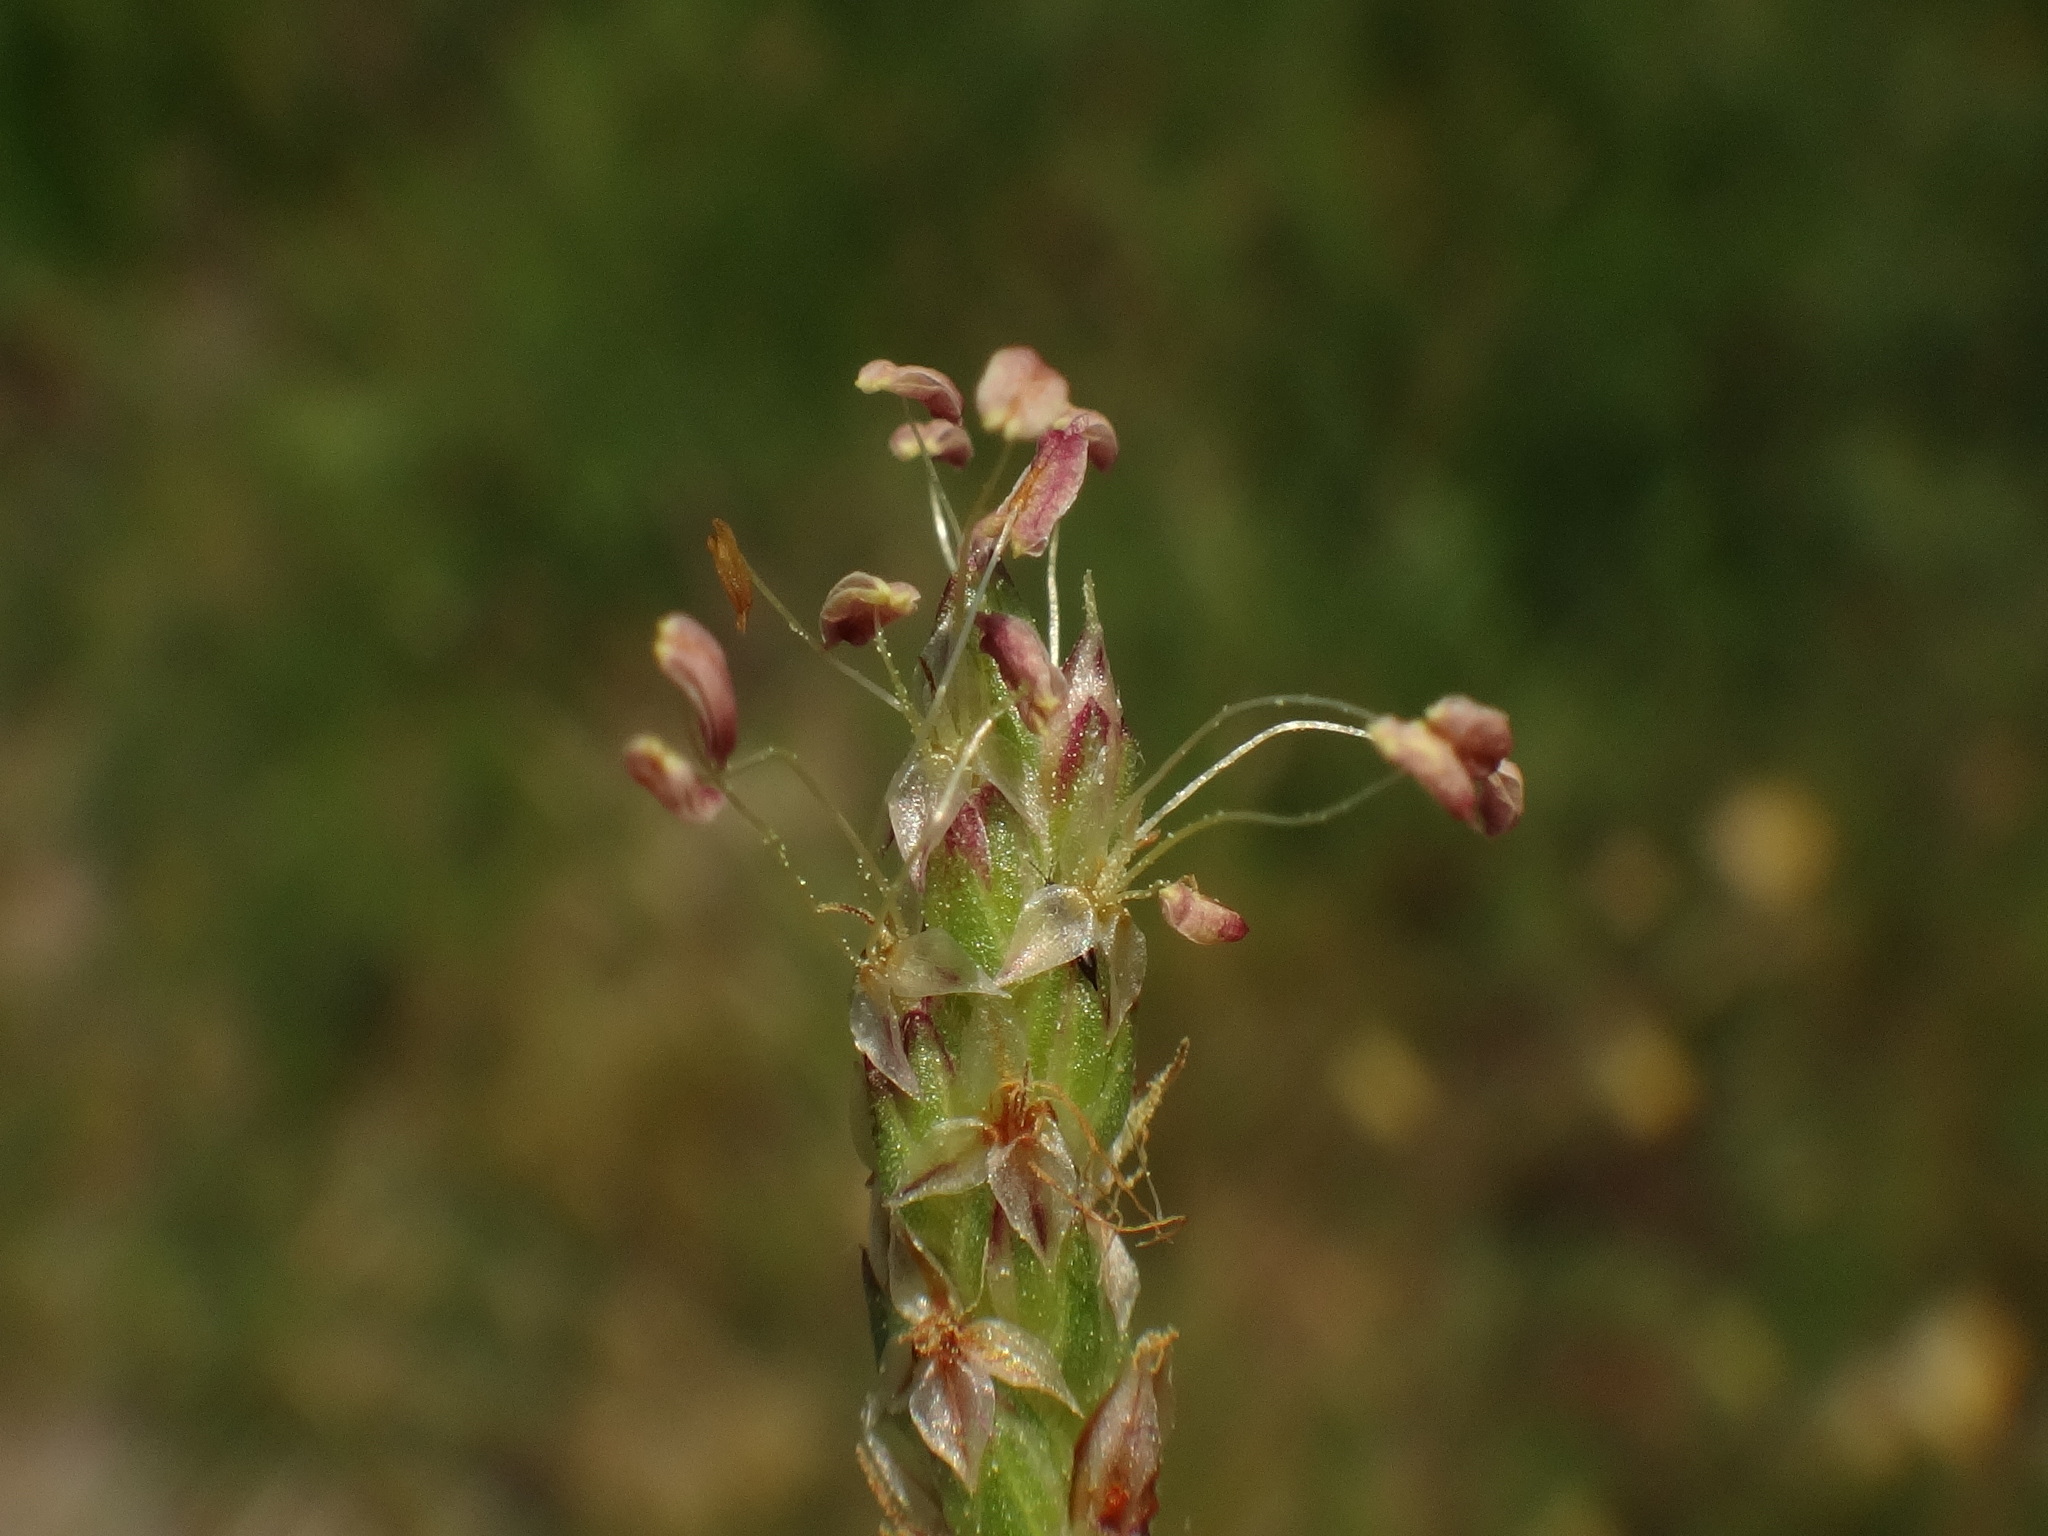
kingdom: Plantae
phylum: Tracheophyta
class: Magnoliopsida
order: Lamiales
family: Plantaginaceae
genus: Plantago
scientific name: Plantago subulata
